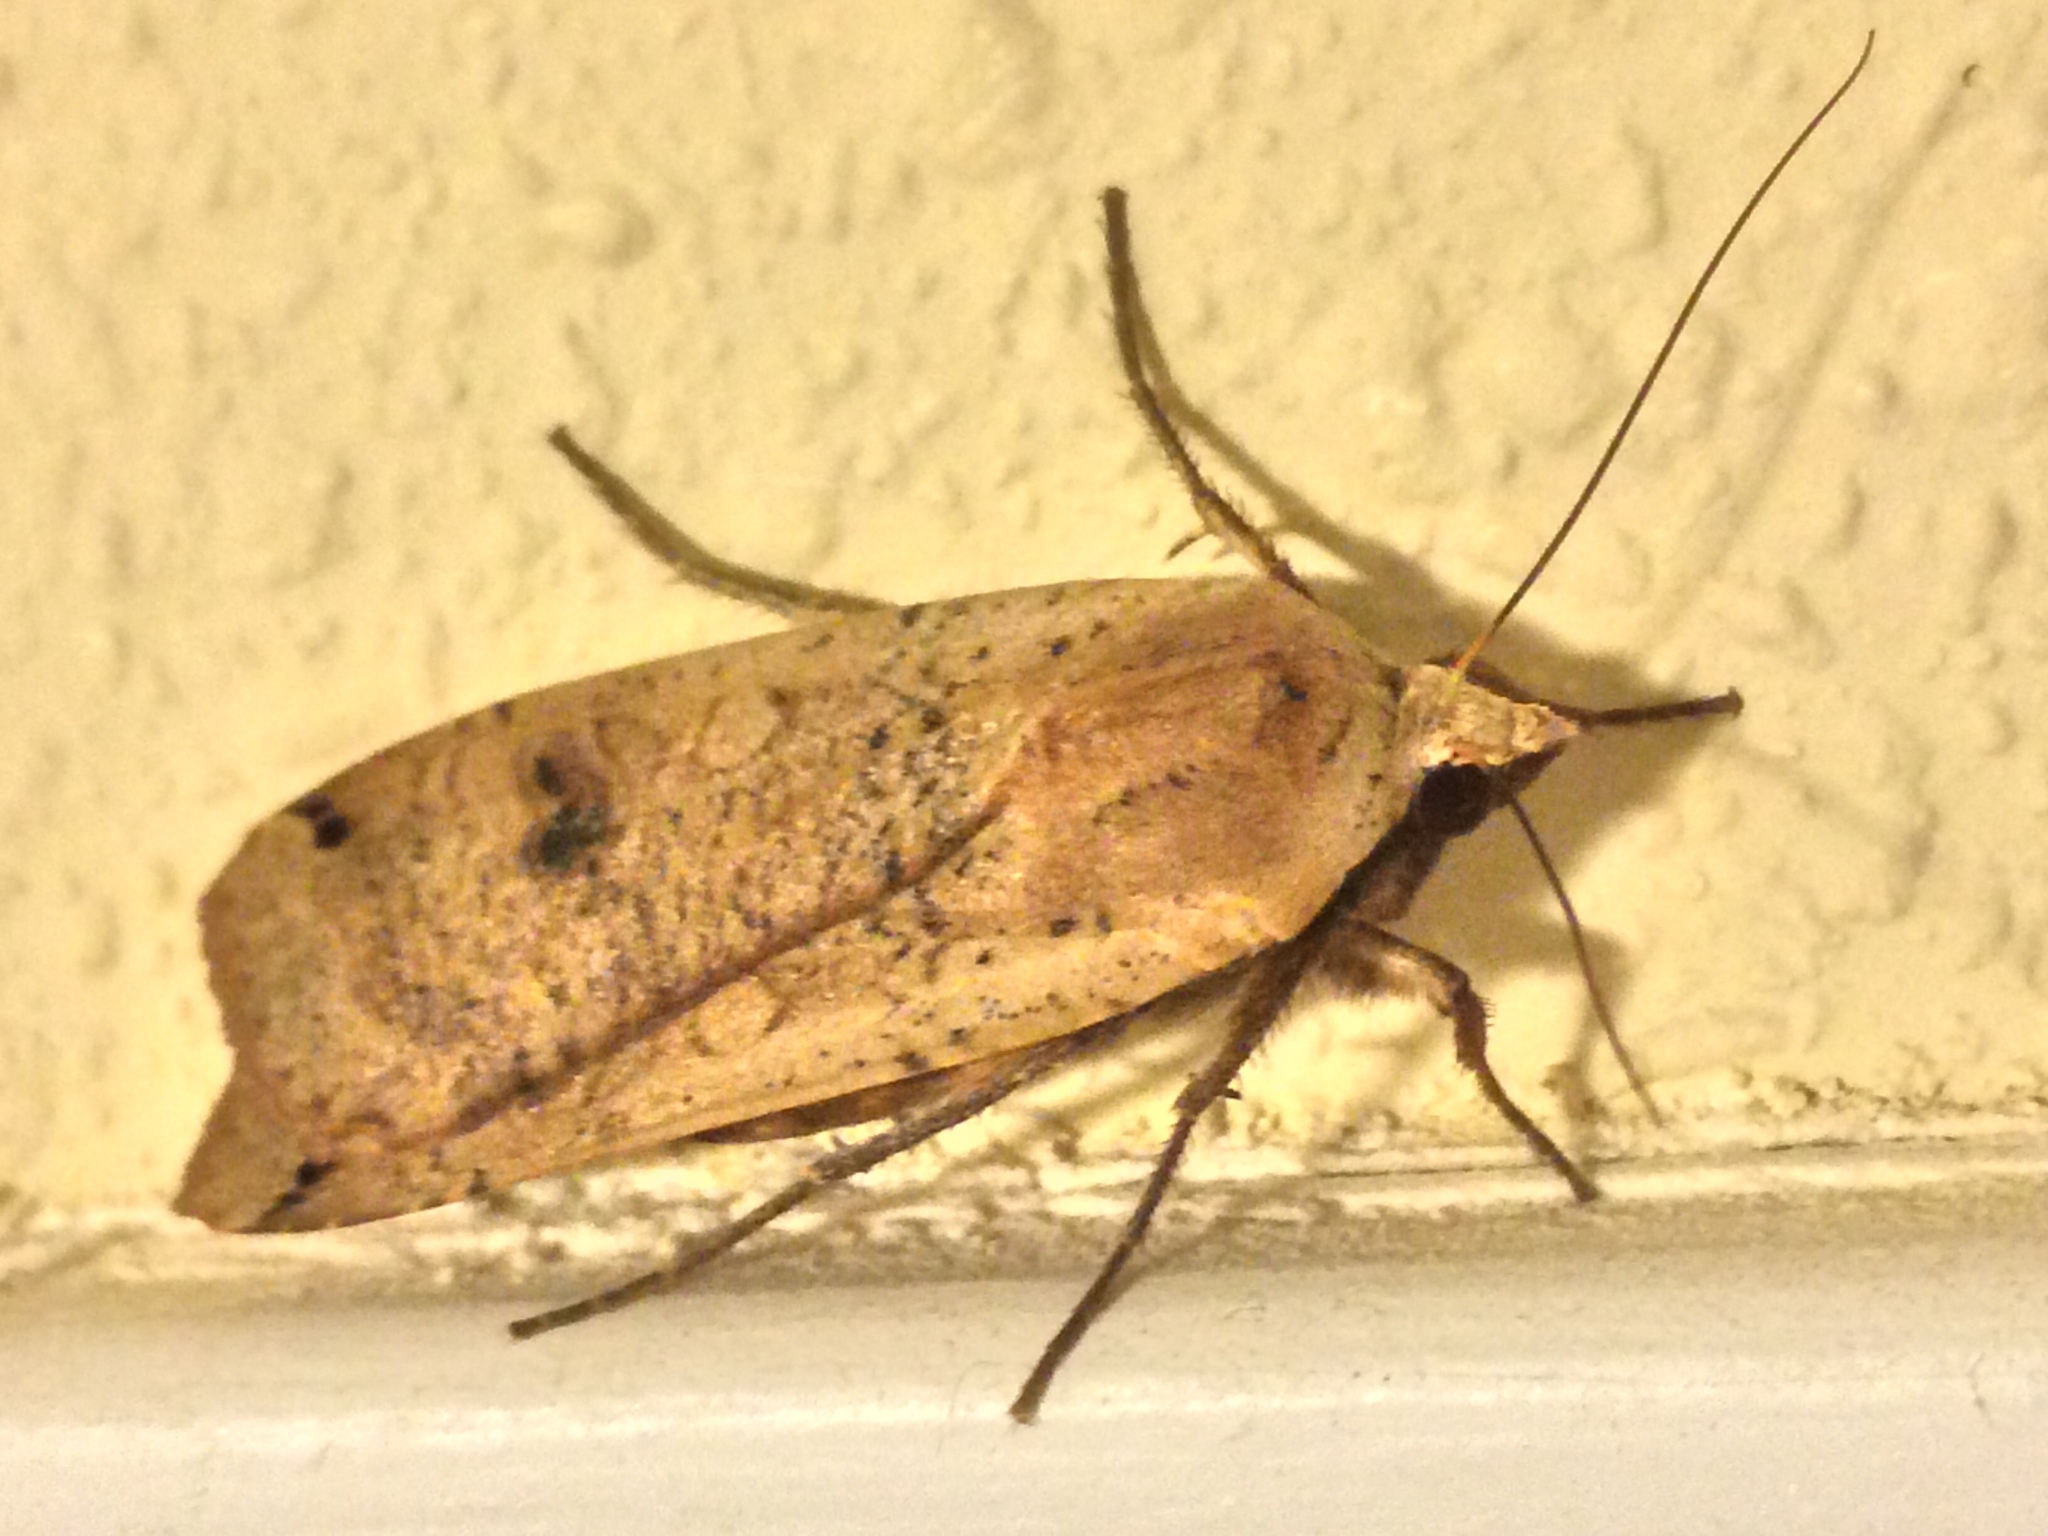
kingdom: Animalia
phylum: Arthropoda
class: Insecta
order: Lepidoptera
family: Noctuidae
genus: Noctua
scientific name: Noctua pronuba
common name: Large yellow underwing
